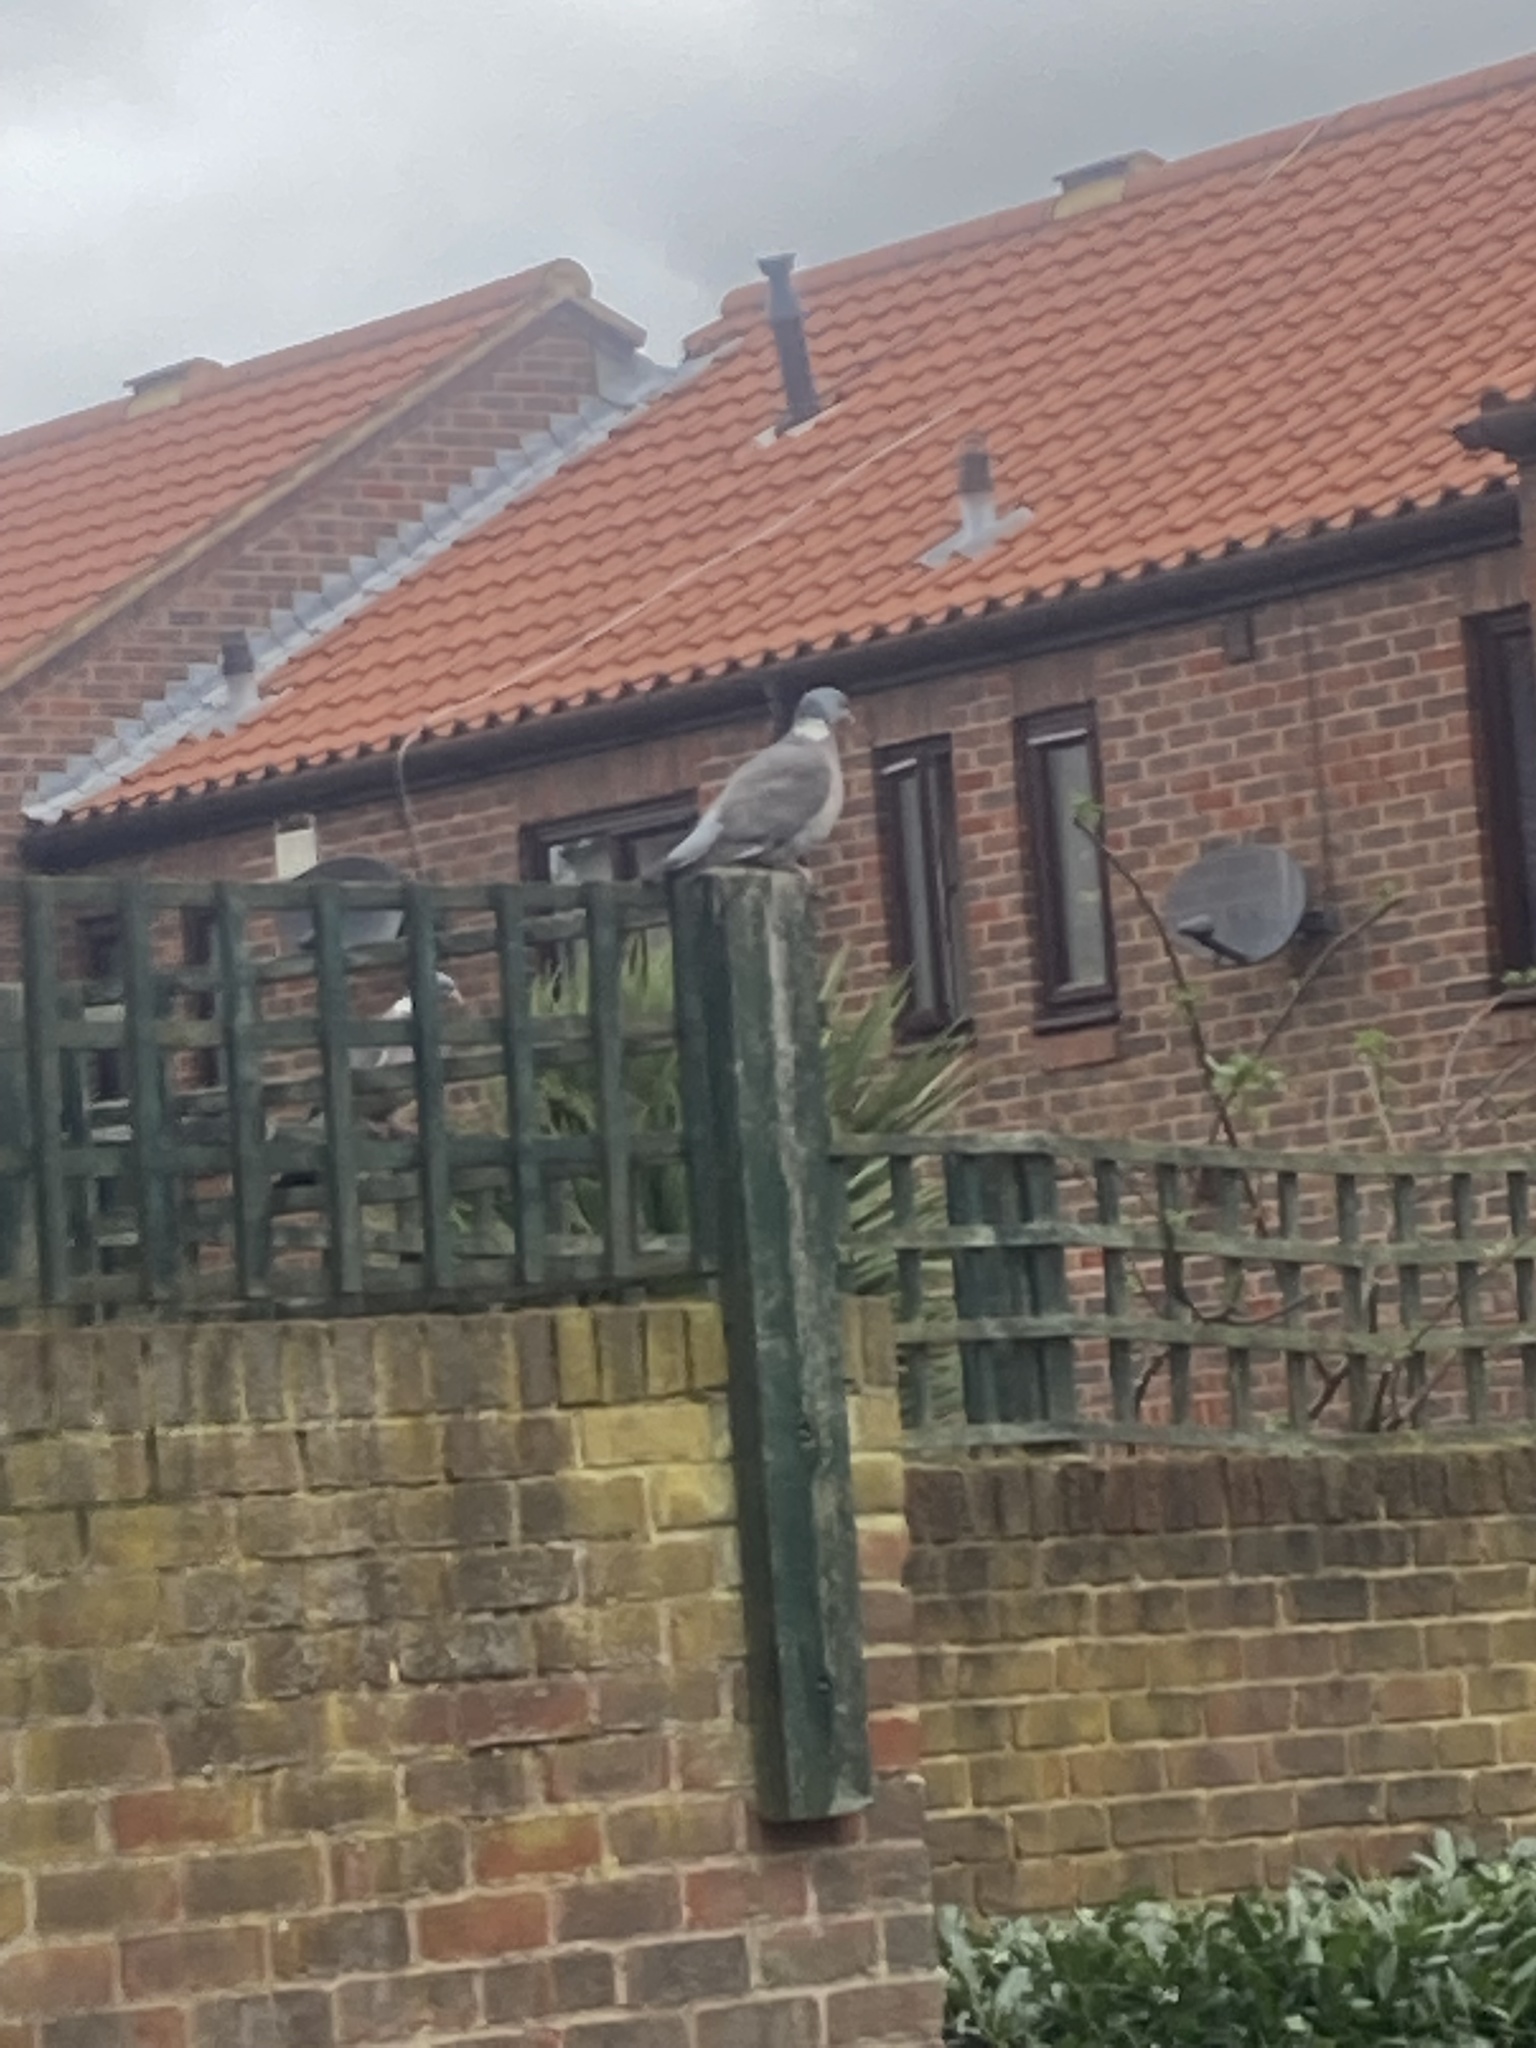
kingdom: Animalia
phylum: Chordata
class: Aves
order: Columbiformes
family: Columbidae
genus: Columba
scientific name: Columba palumbus
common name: Common wood pigeon
